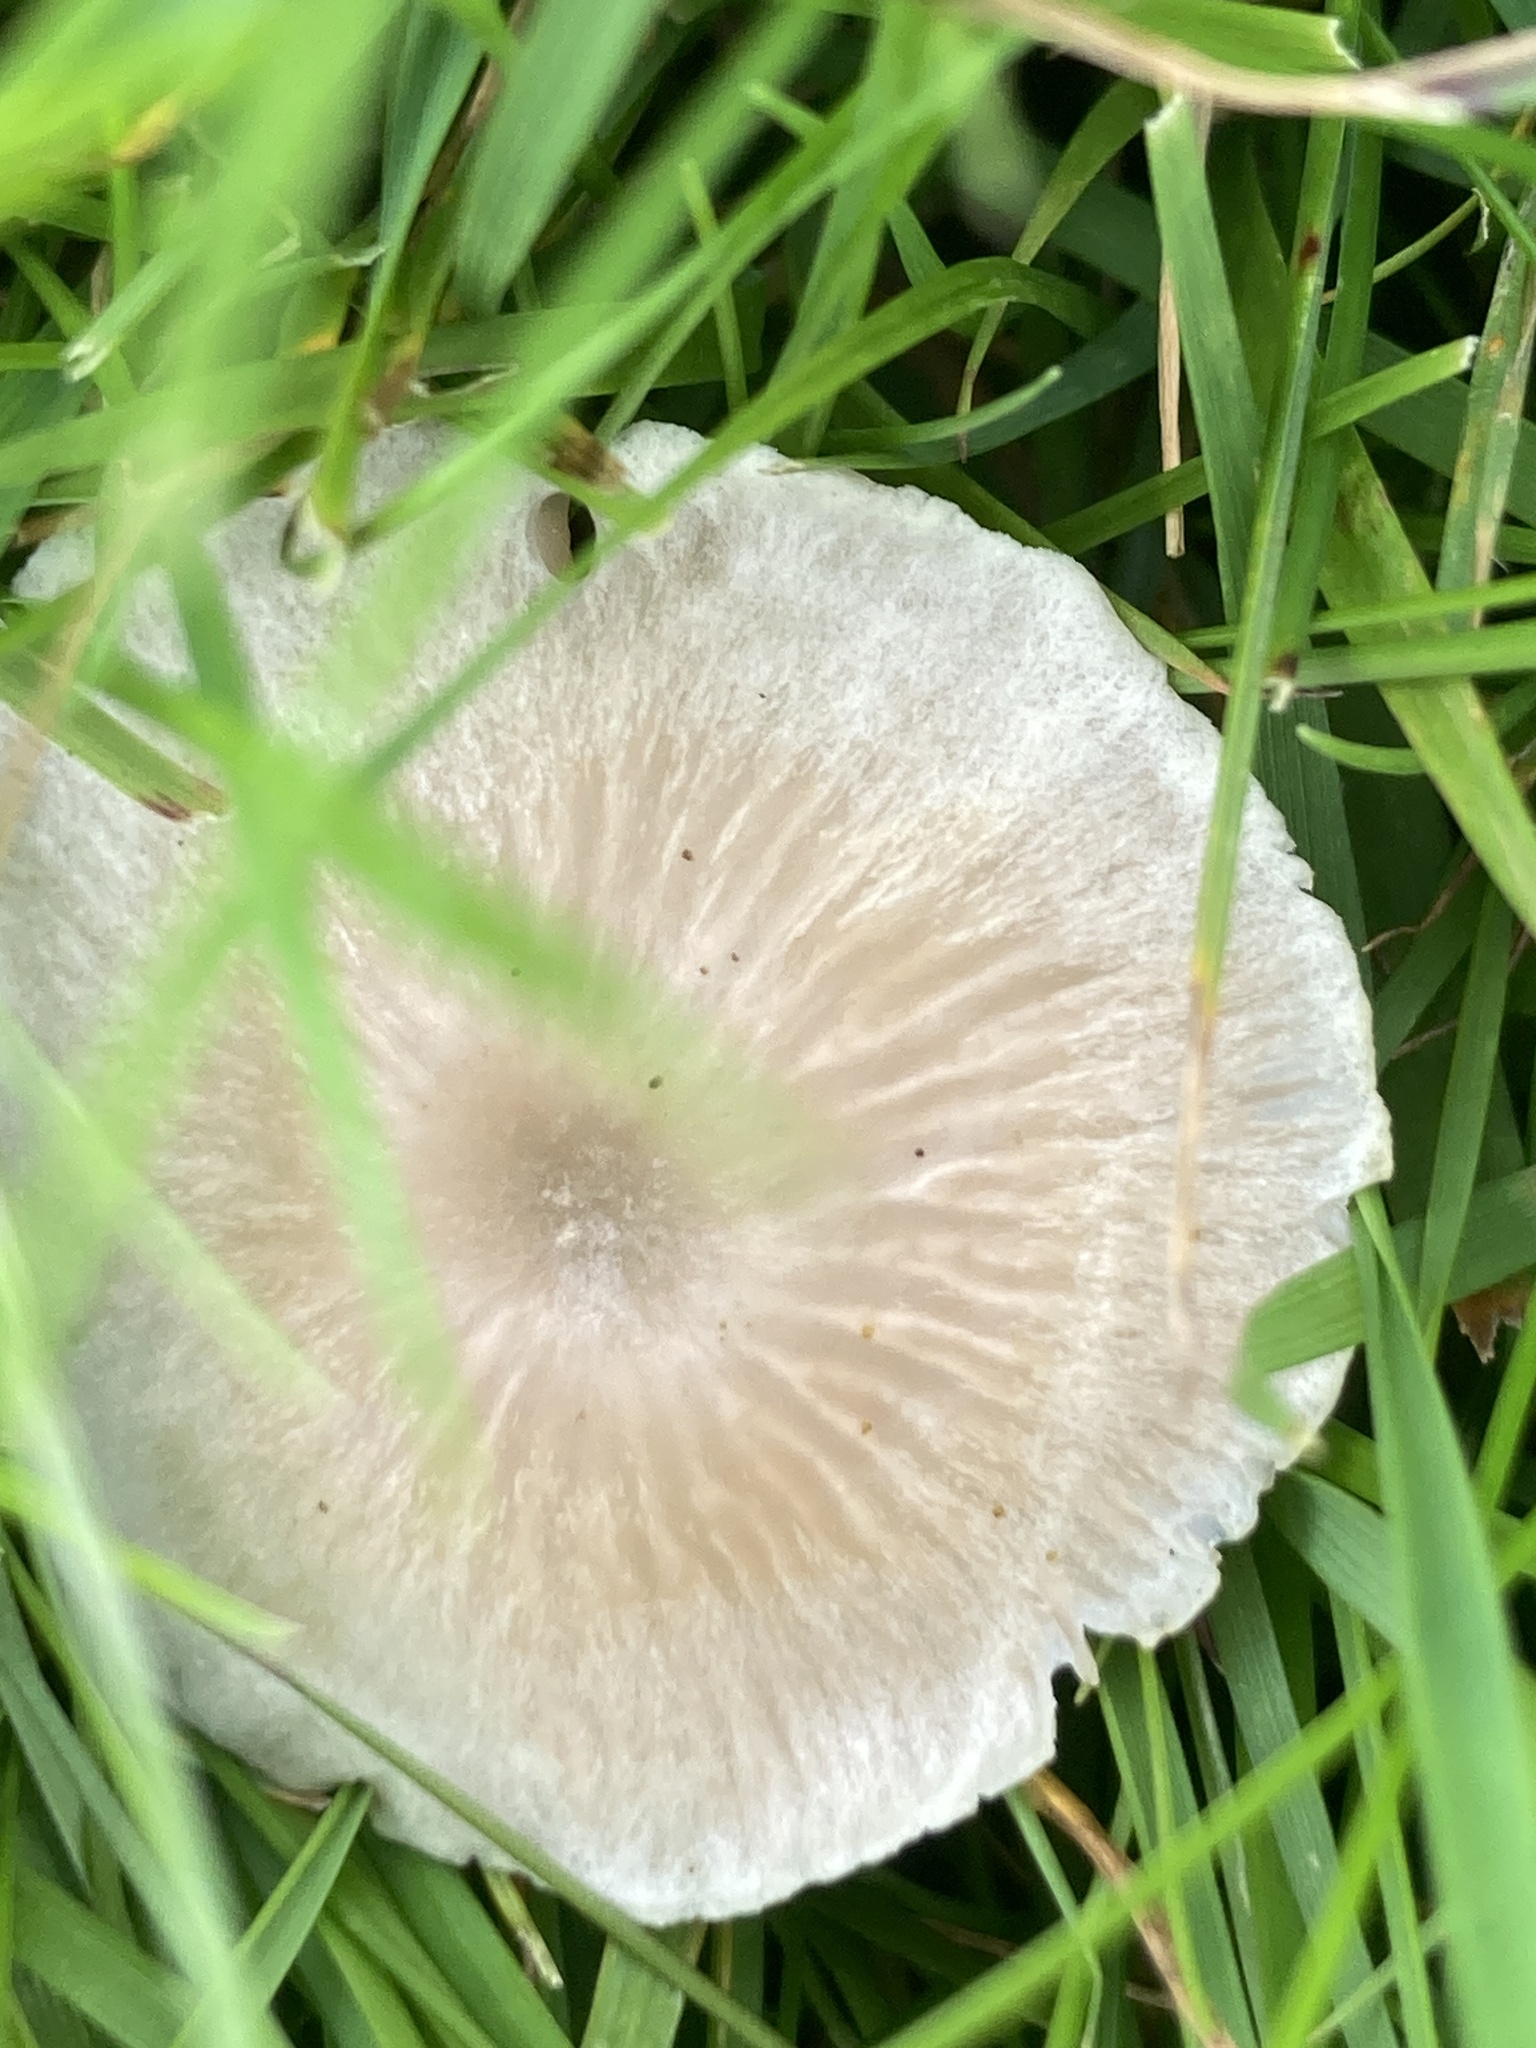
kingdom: Fungi
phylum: Basidiomycota
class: Agaricomycetes
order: Agaricales
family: Entolomataceae
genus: Entoloma
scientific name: Entoloma sericellum
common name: Cream pinkgill
